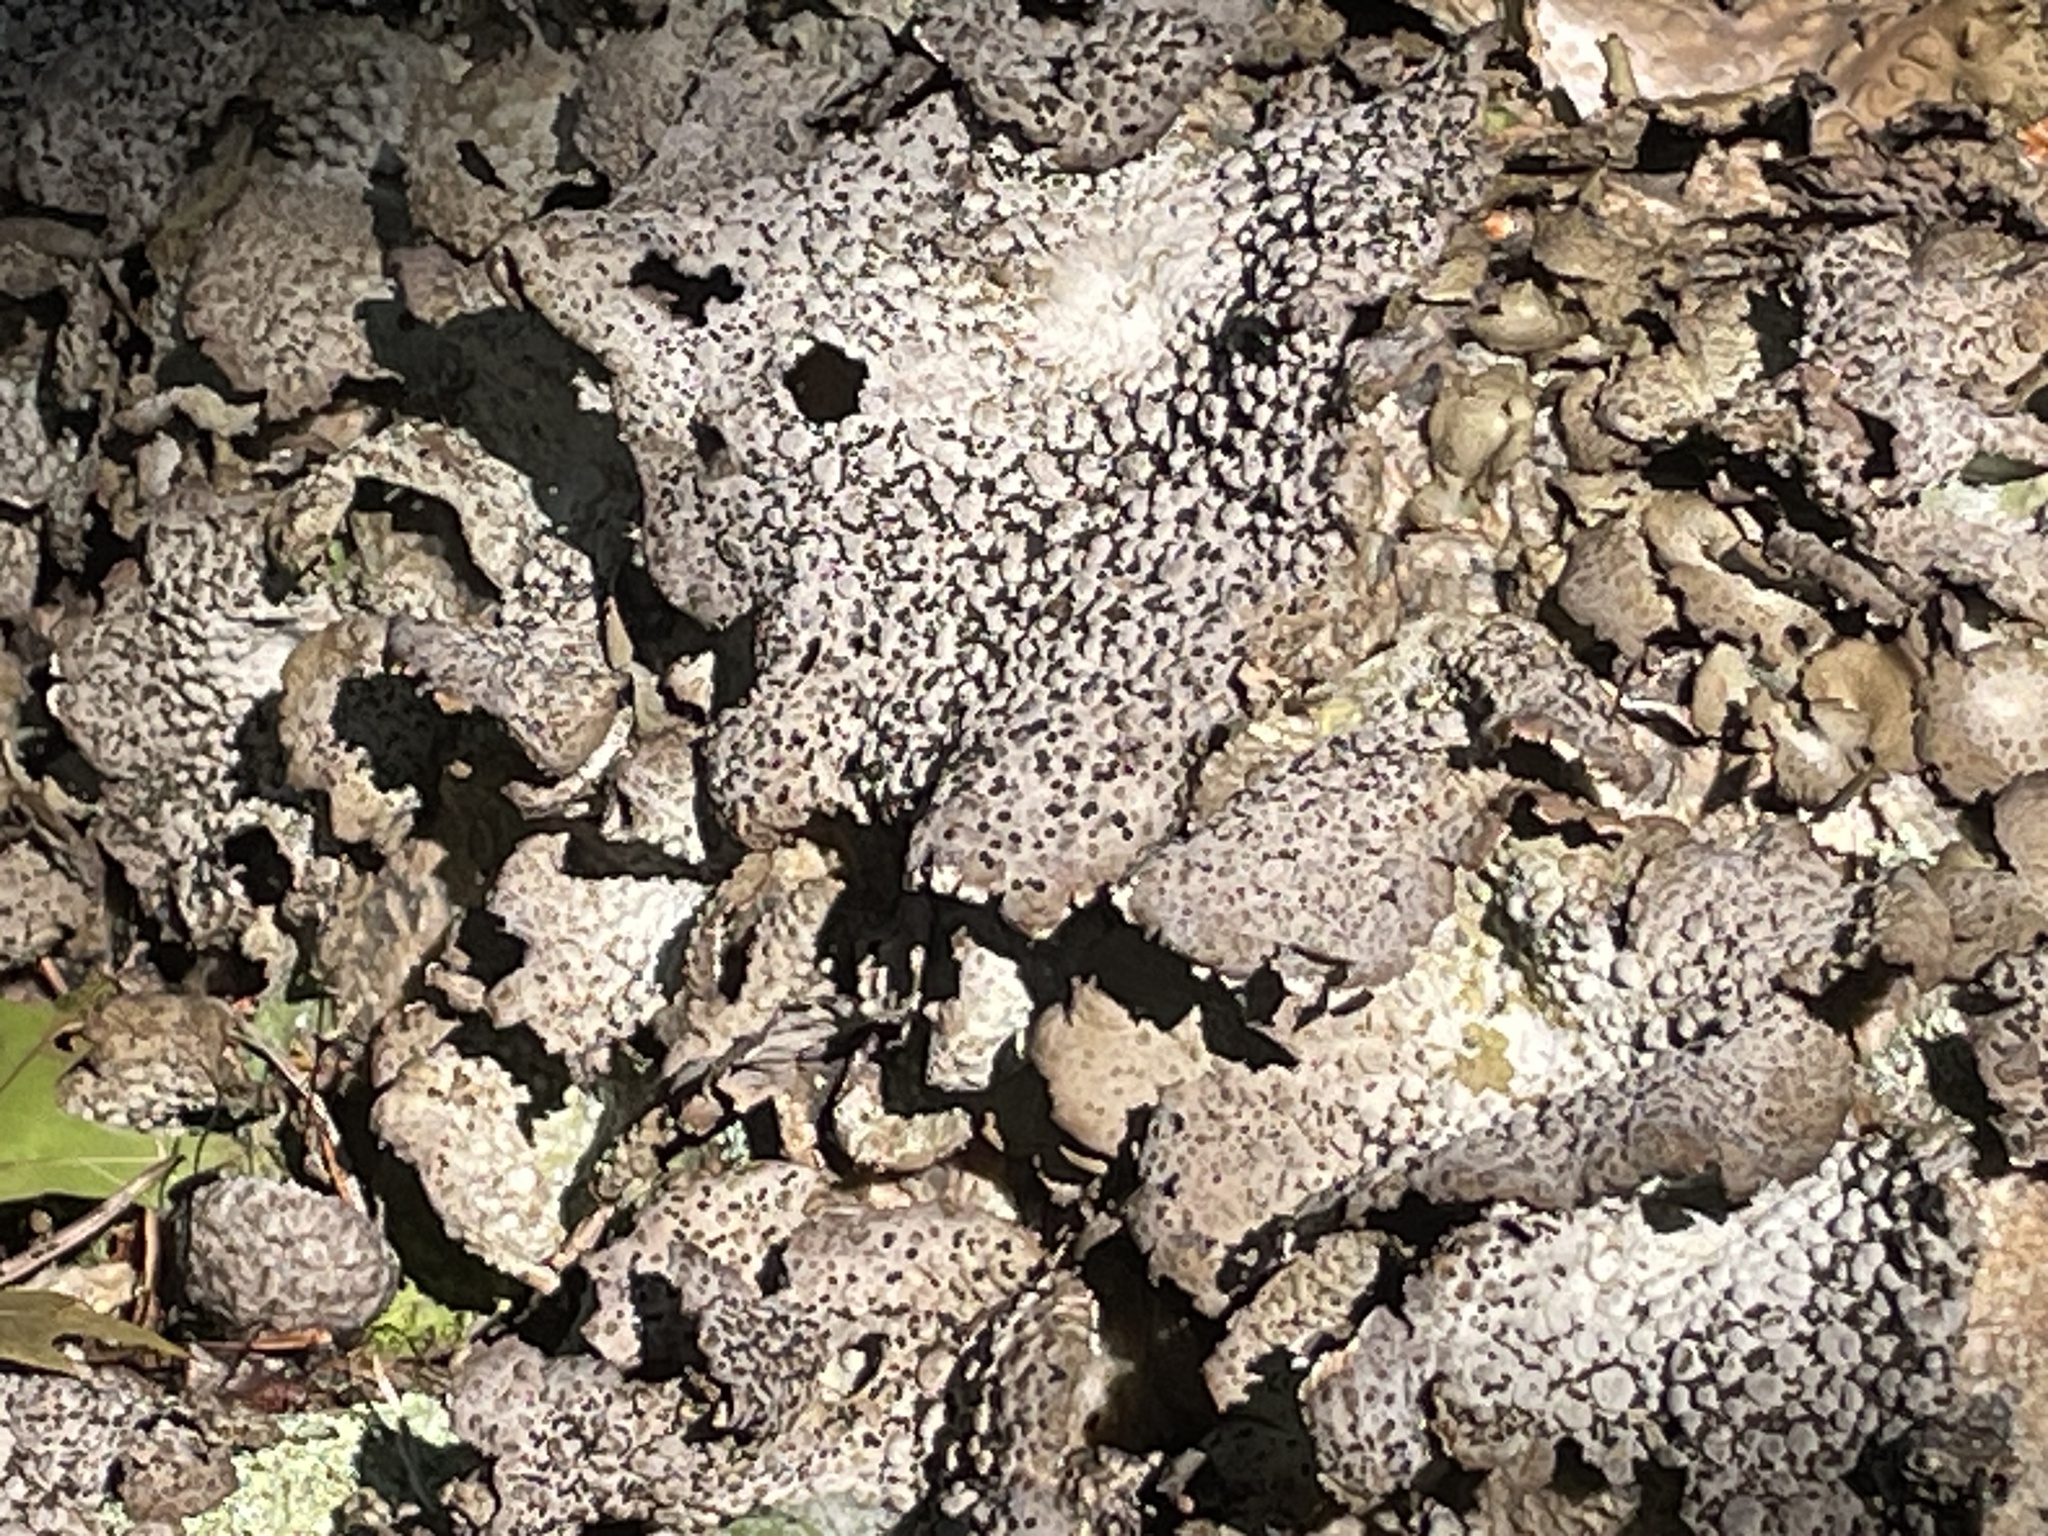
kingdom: Fungi
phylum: Ascomycota
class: Lecanoromycetes
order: Umbilicariales
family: Umbilicariaceae
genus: Lasallia
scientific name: Lasallia papulosa
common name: Common toadskin lichen
